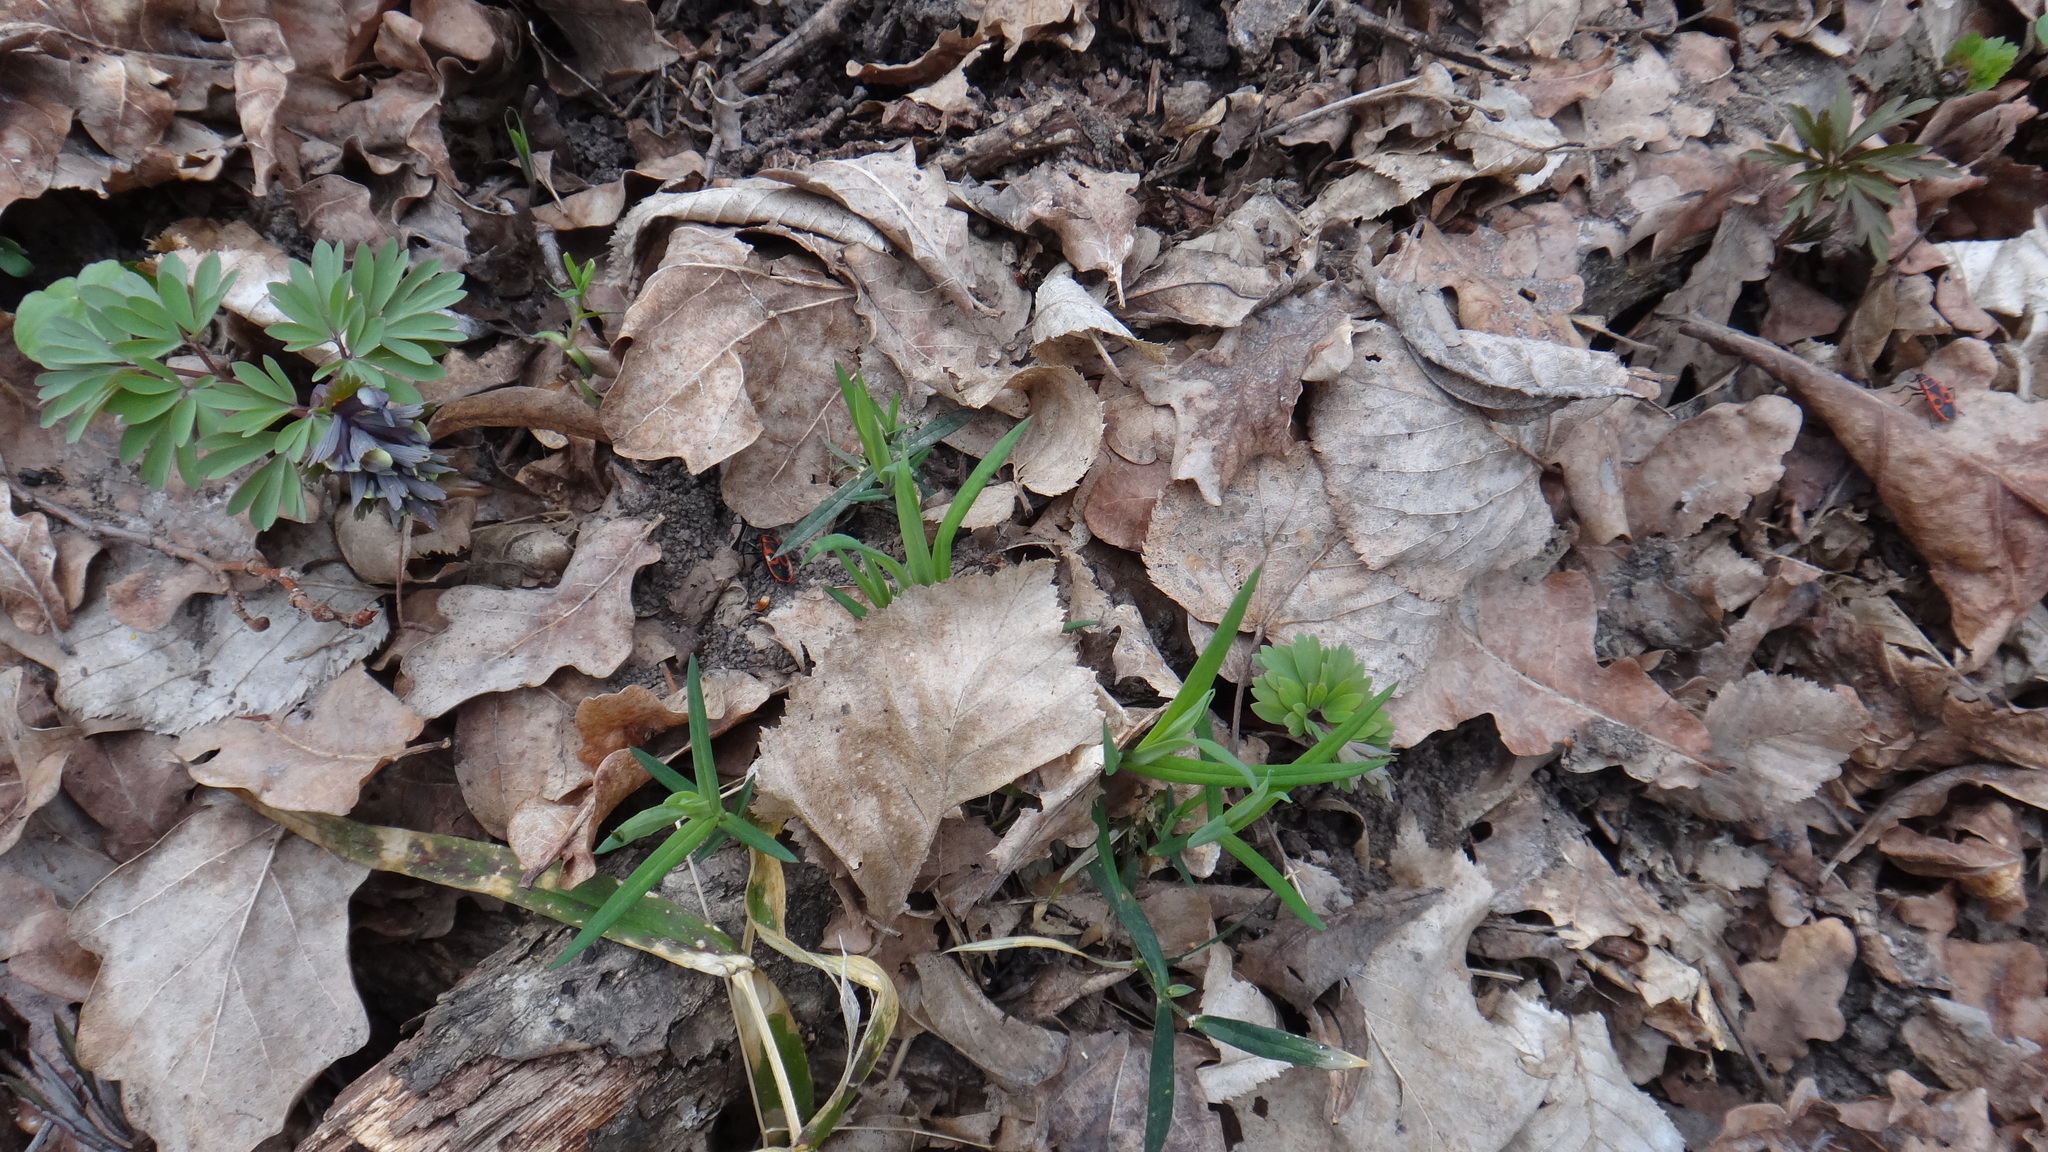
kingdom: Plantae
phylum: Tracheophyta
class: Magnoliopsida
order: Caryophyllales
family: Caryophyllaceae
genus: Rabelera
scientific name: Rabelera holostea
